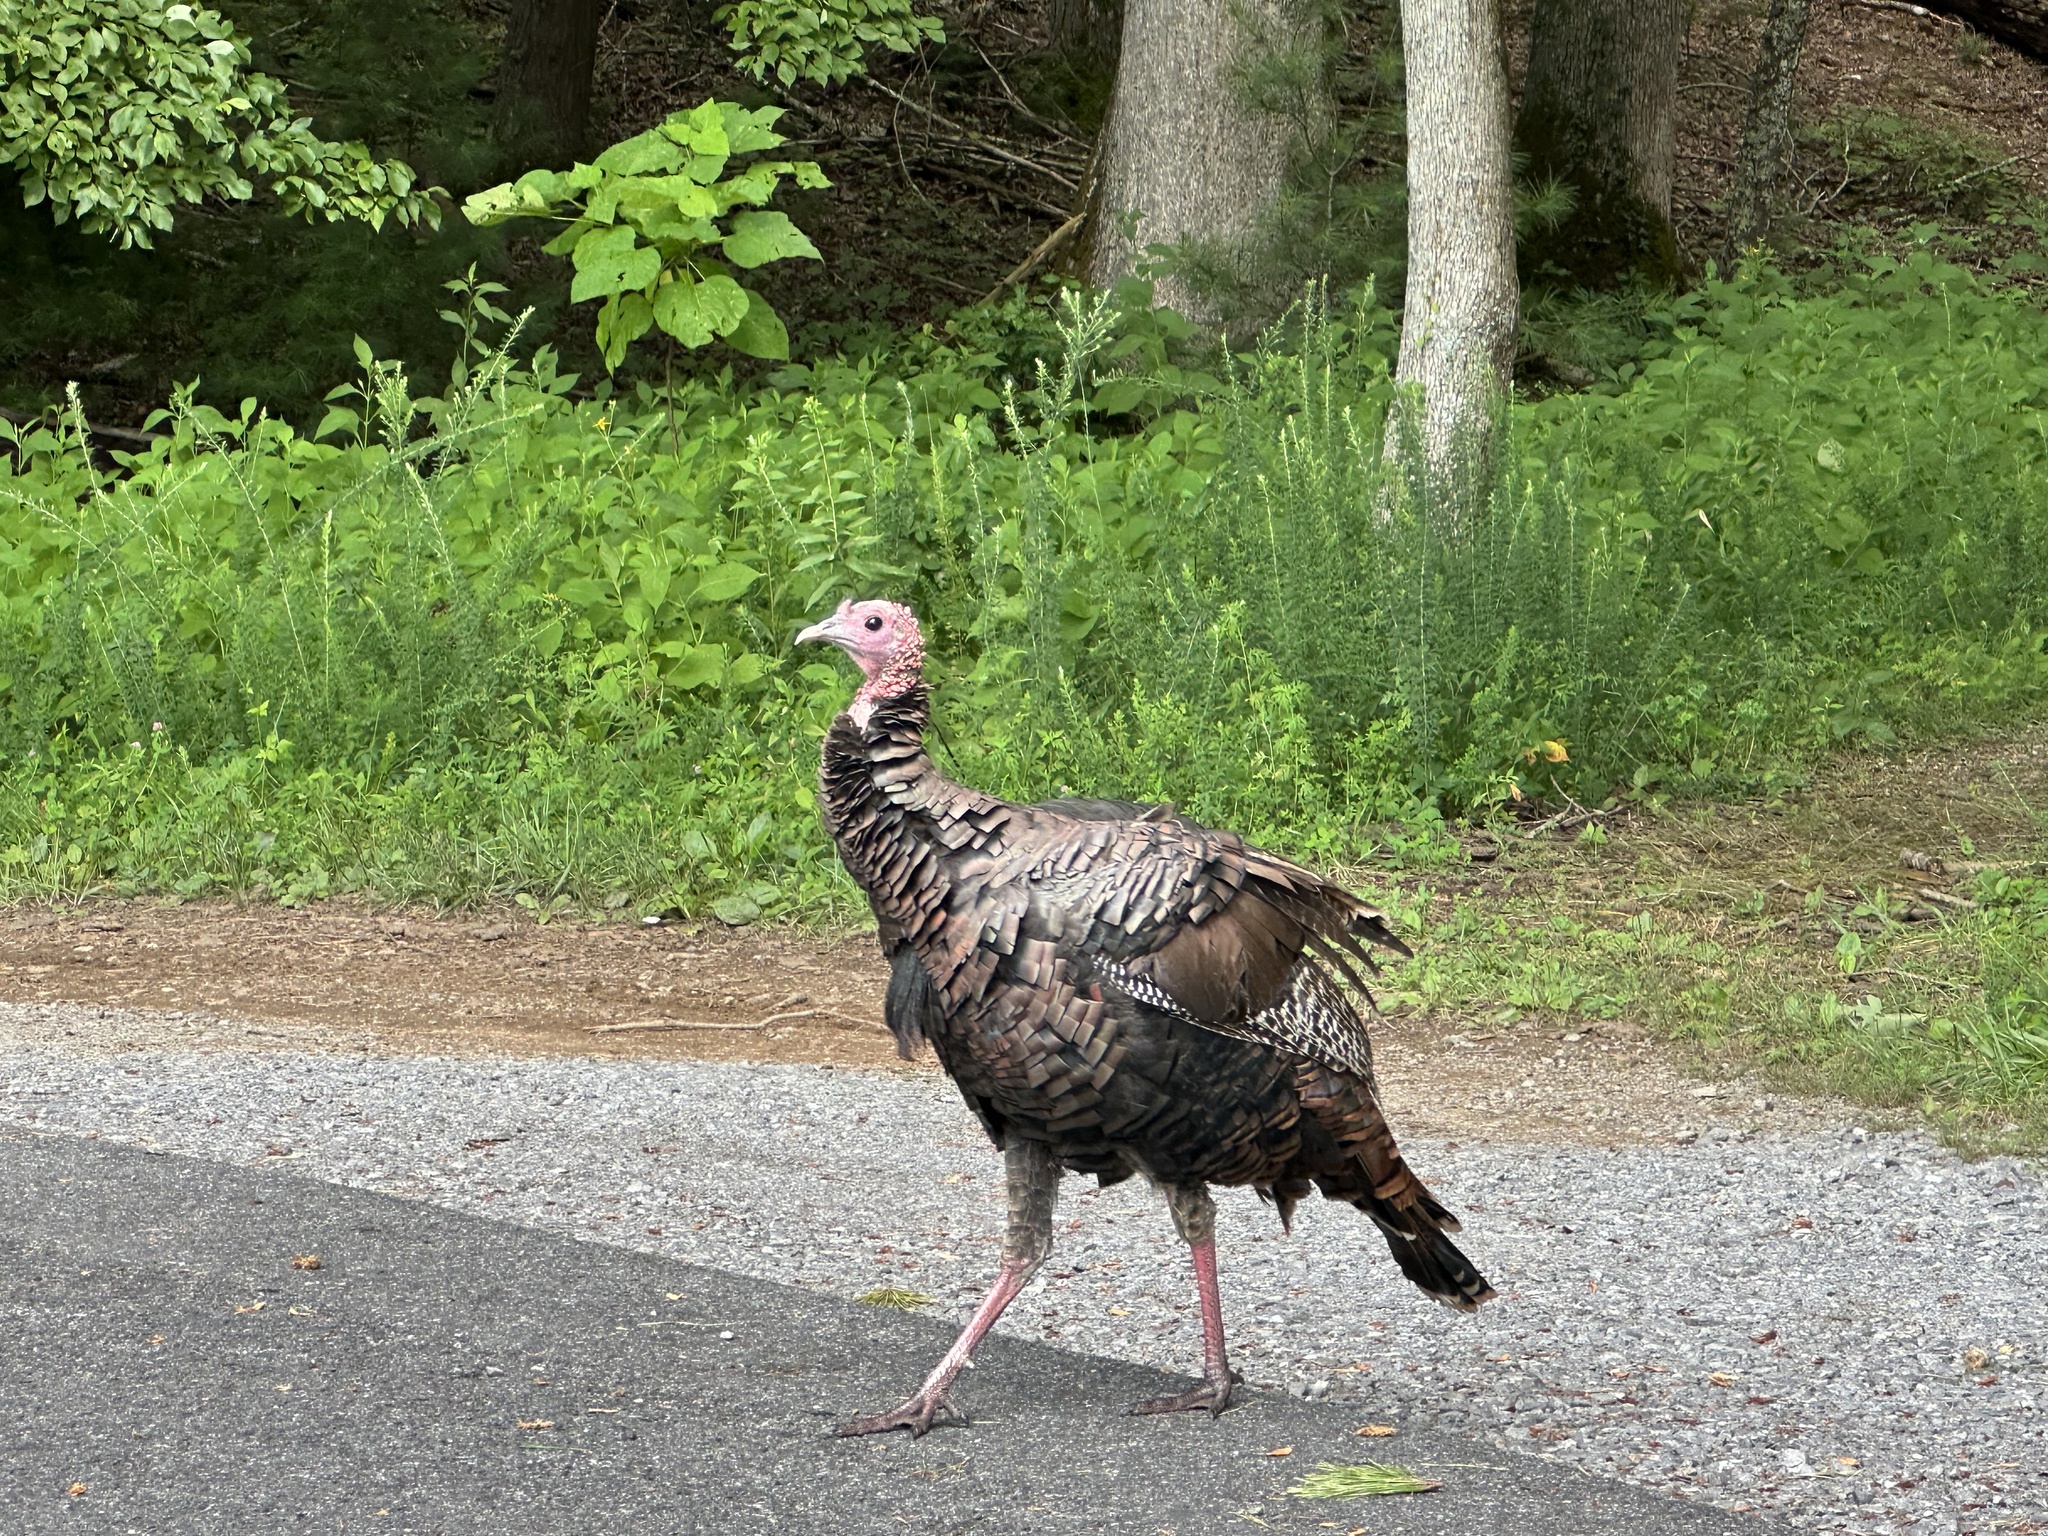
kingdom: Animalia
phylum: Chordata
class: Aves
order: Galliformes
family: Phasianidae
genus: Meleagris
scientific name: Meleagris gallopavo
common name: Wild turkey
